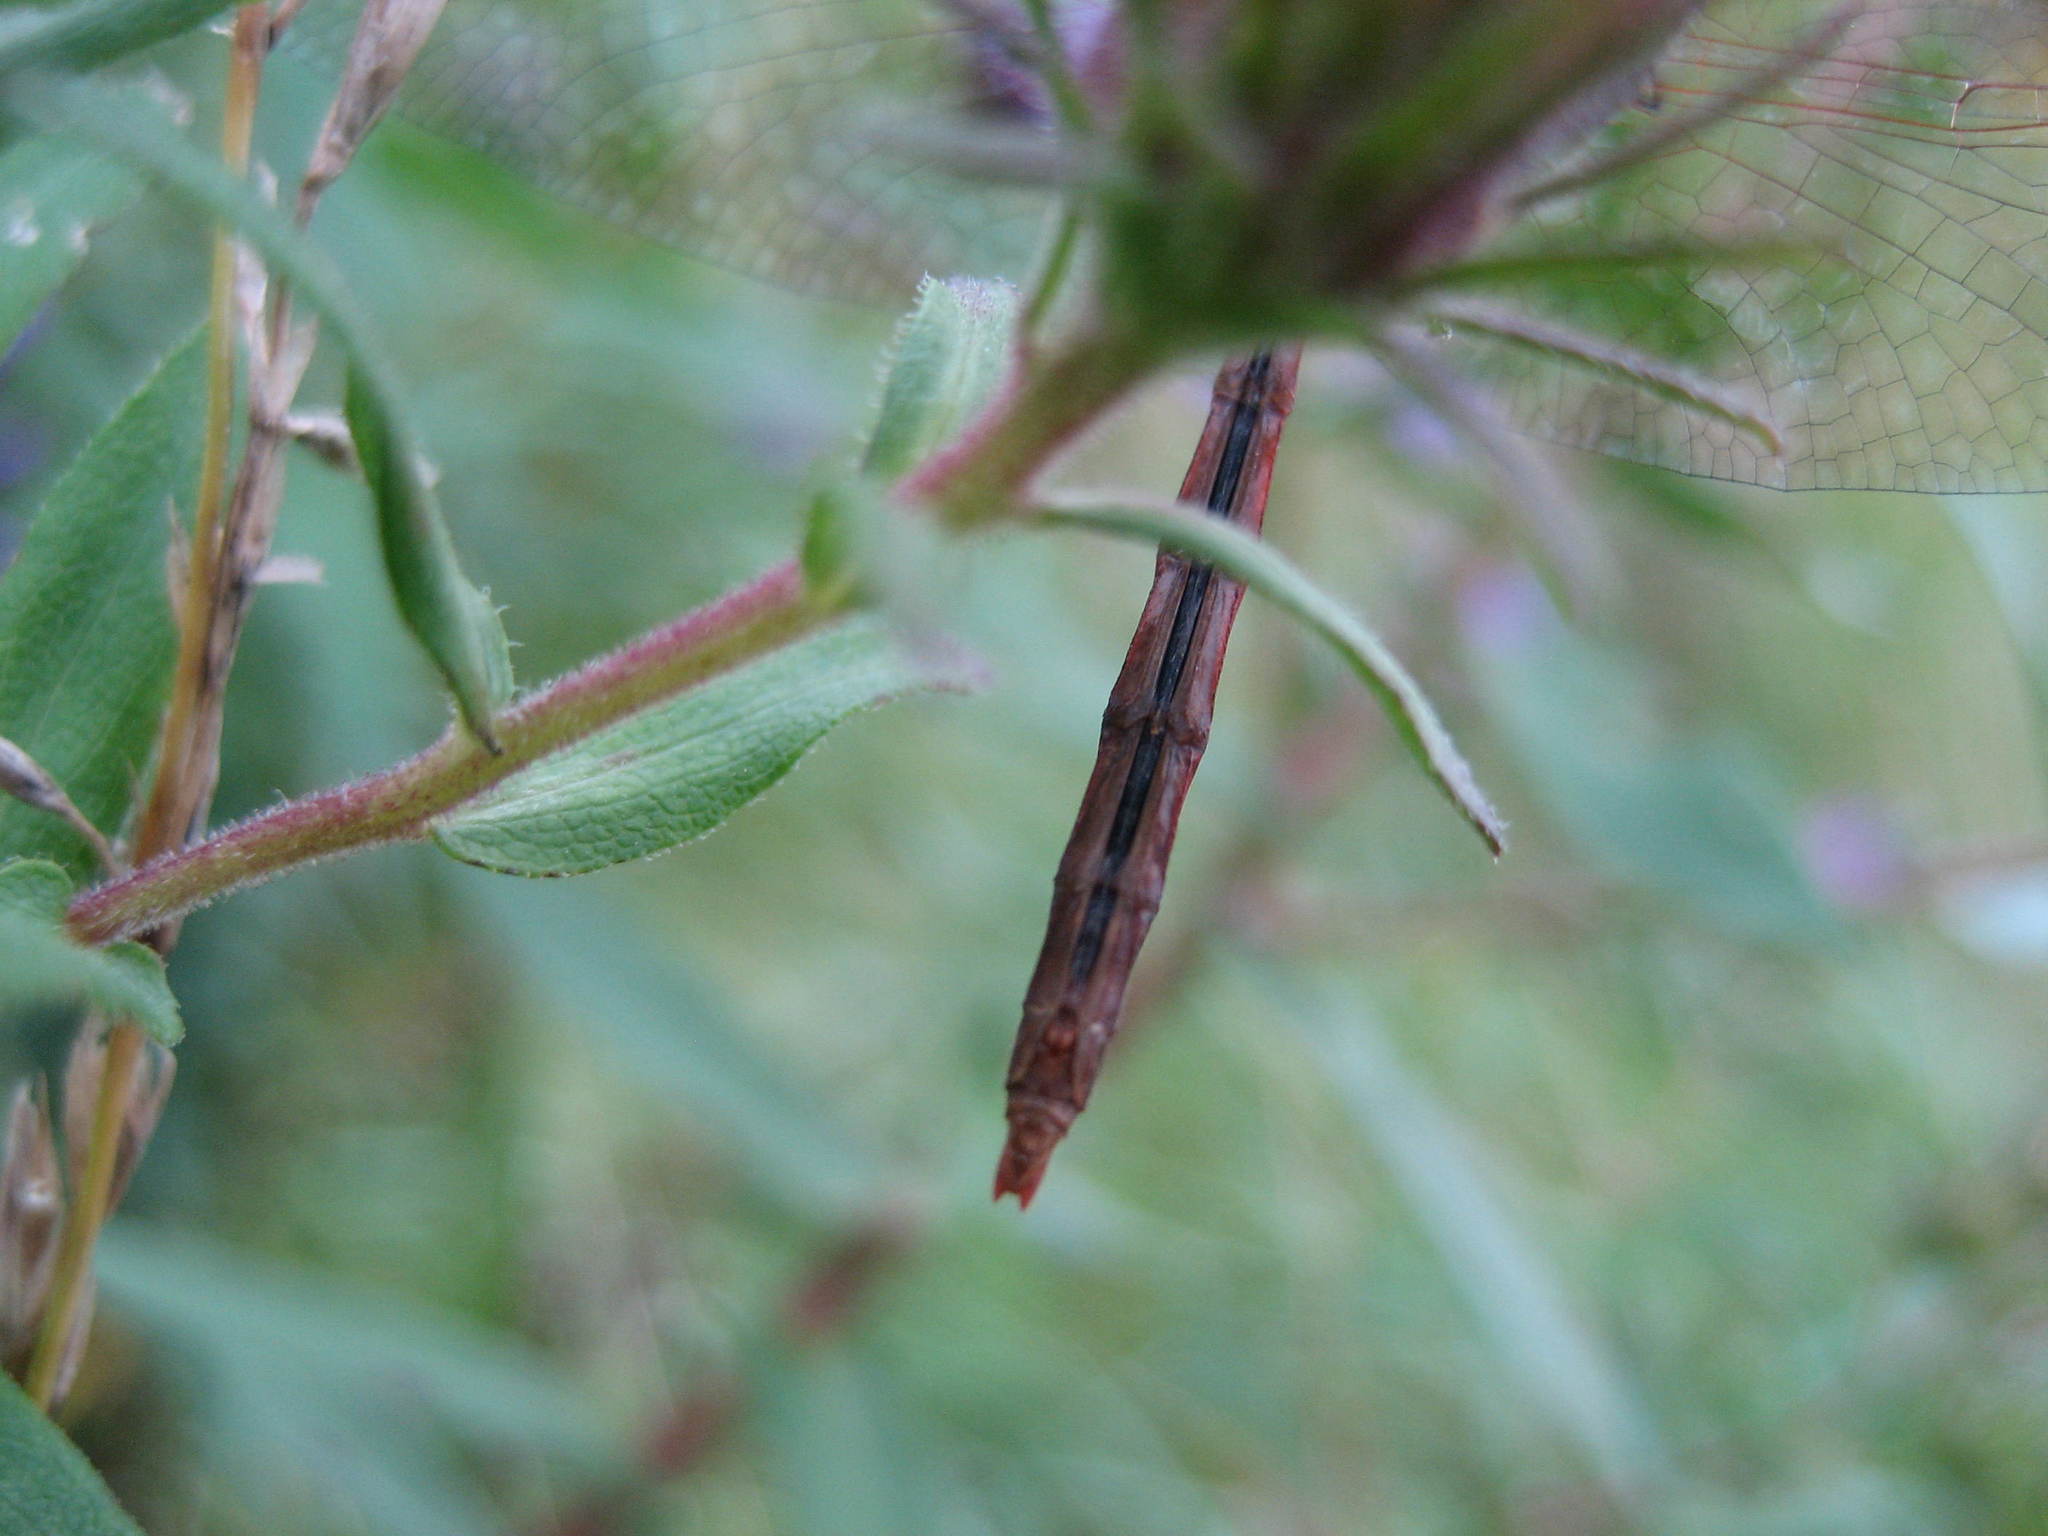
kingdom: Animalia
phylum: Arthropoda
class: Insecta
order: Odonata
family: Libellulidae
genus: Sympetrum
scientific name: Sympetrum vicinum
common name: Autumn meadowhawk
